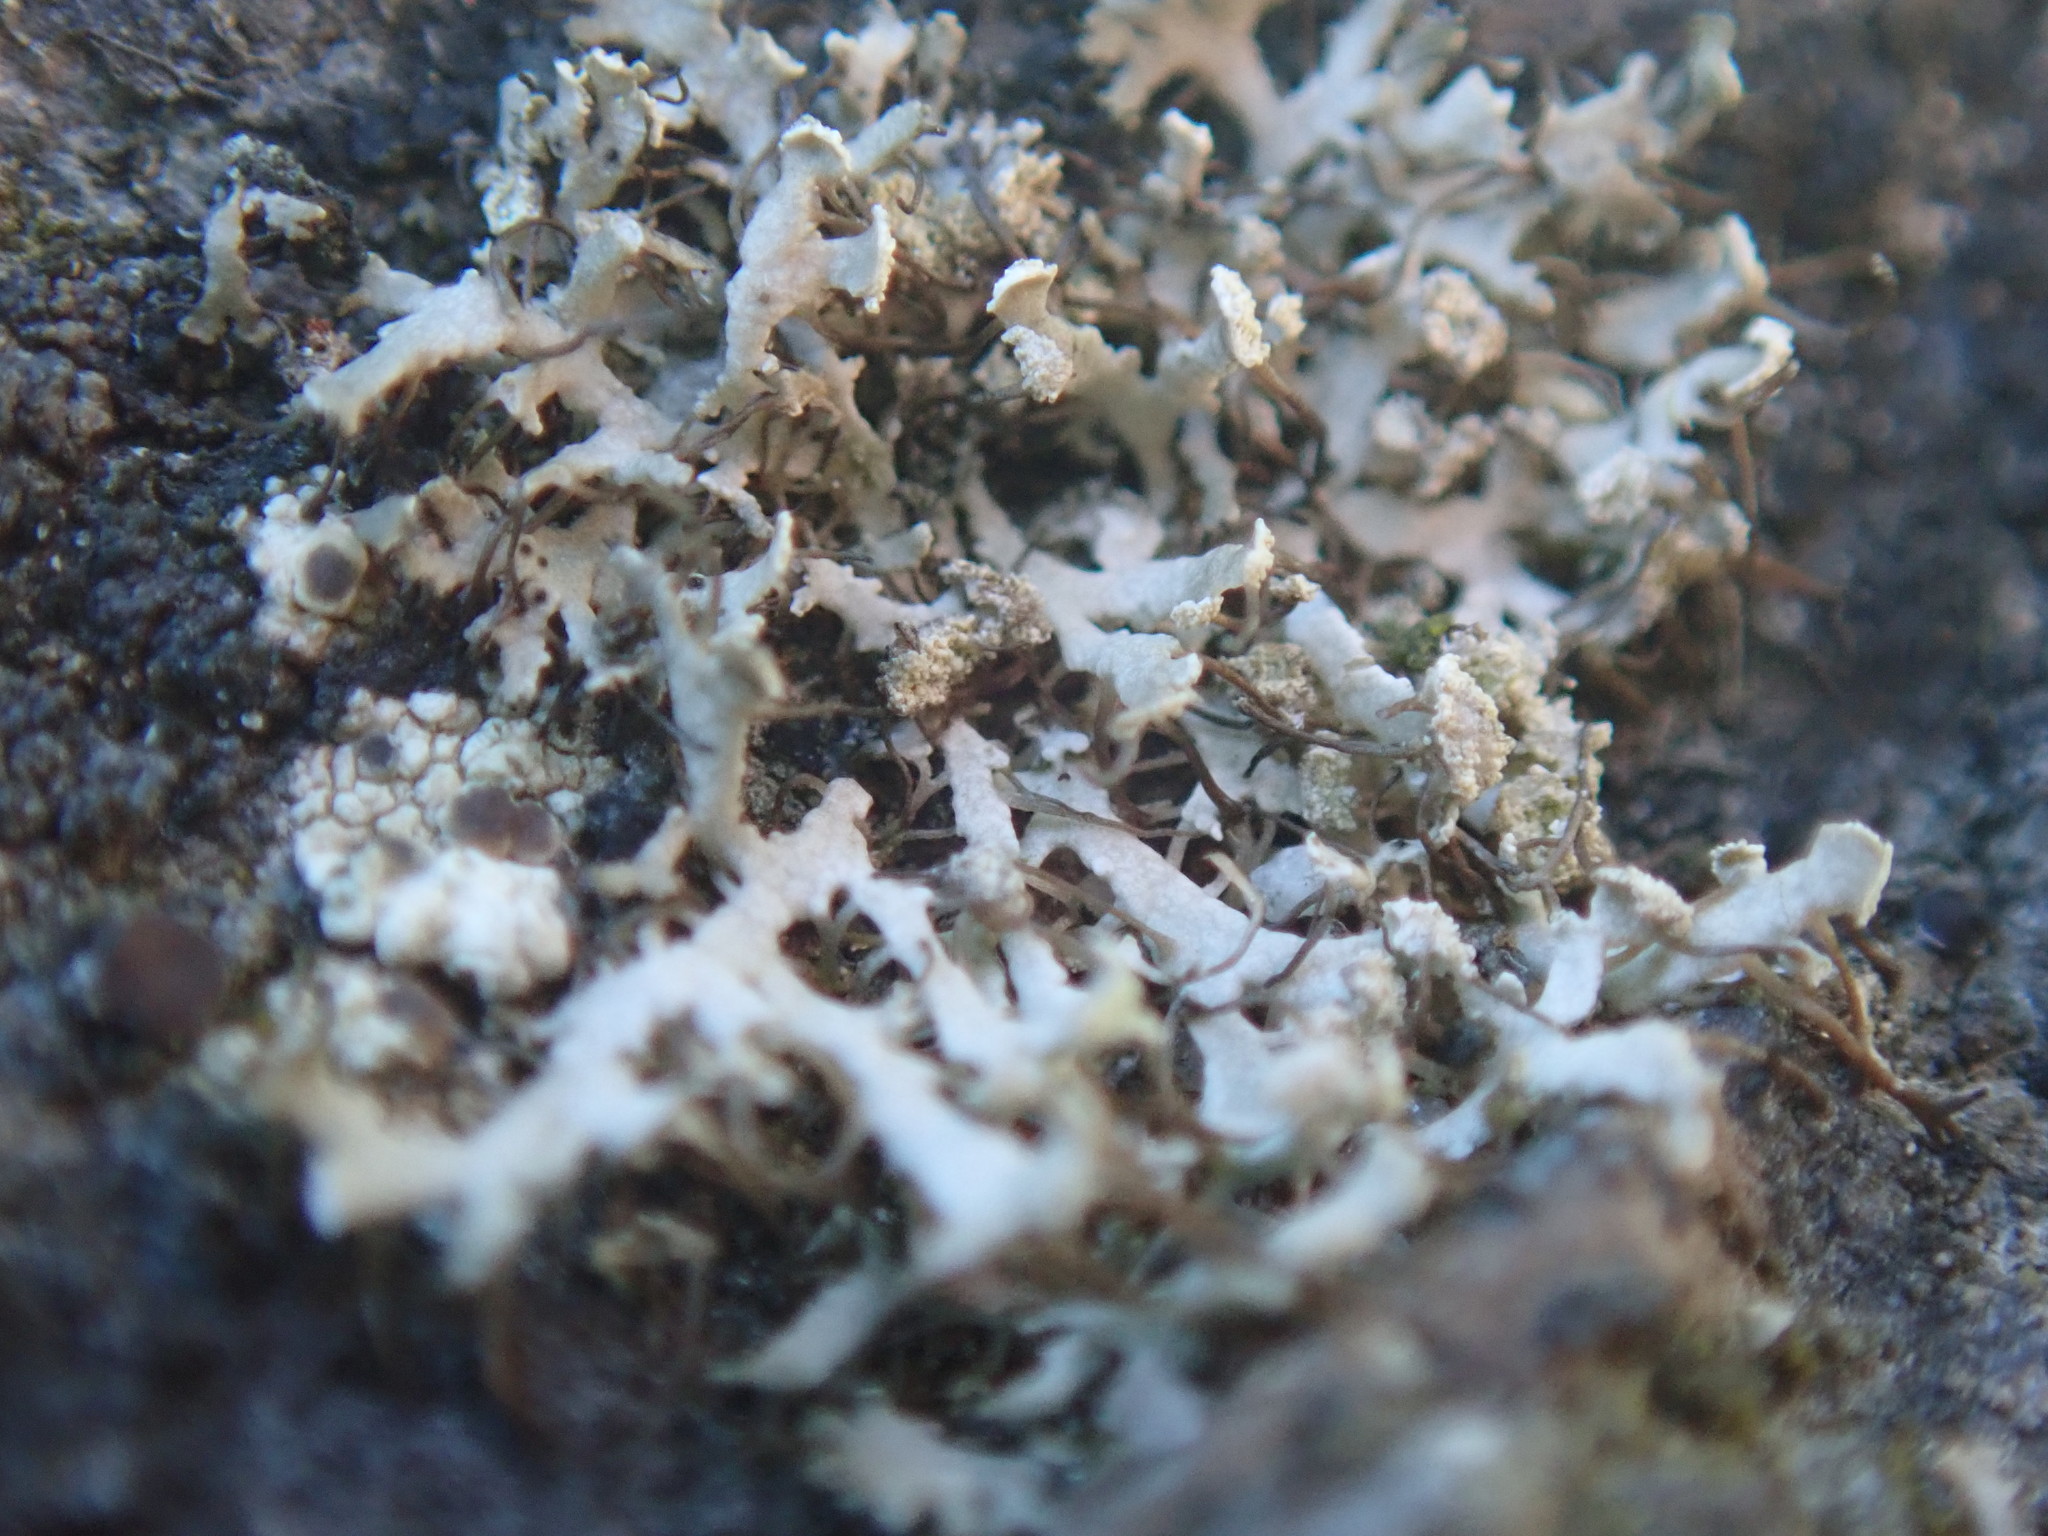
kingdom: Fungi
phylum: Ascomycota
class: Lecanoromycetes
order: Caliciales
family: Physciaceae
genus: Physcia
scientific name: Physcia caesia
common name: Blue-gray rosette lichen
